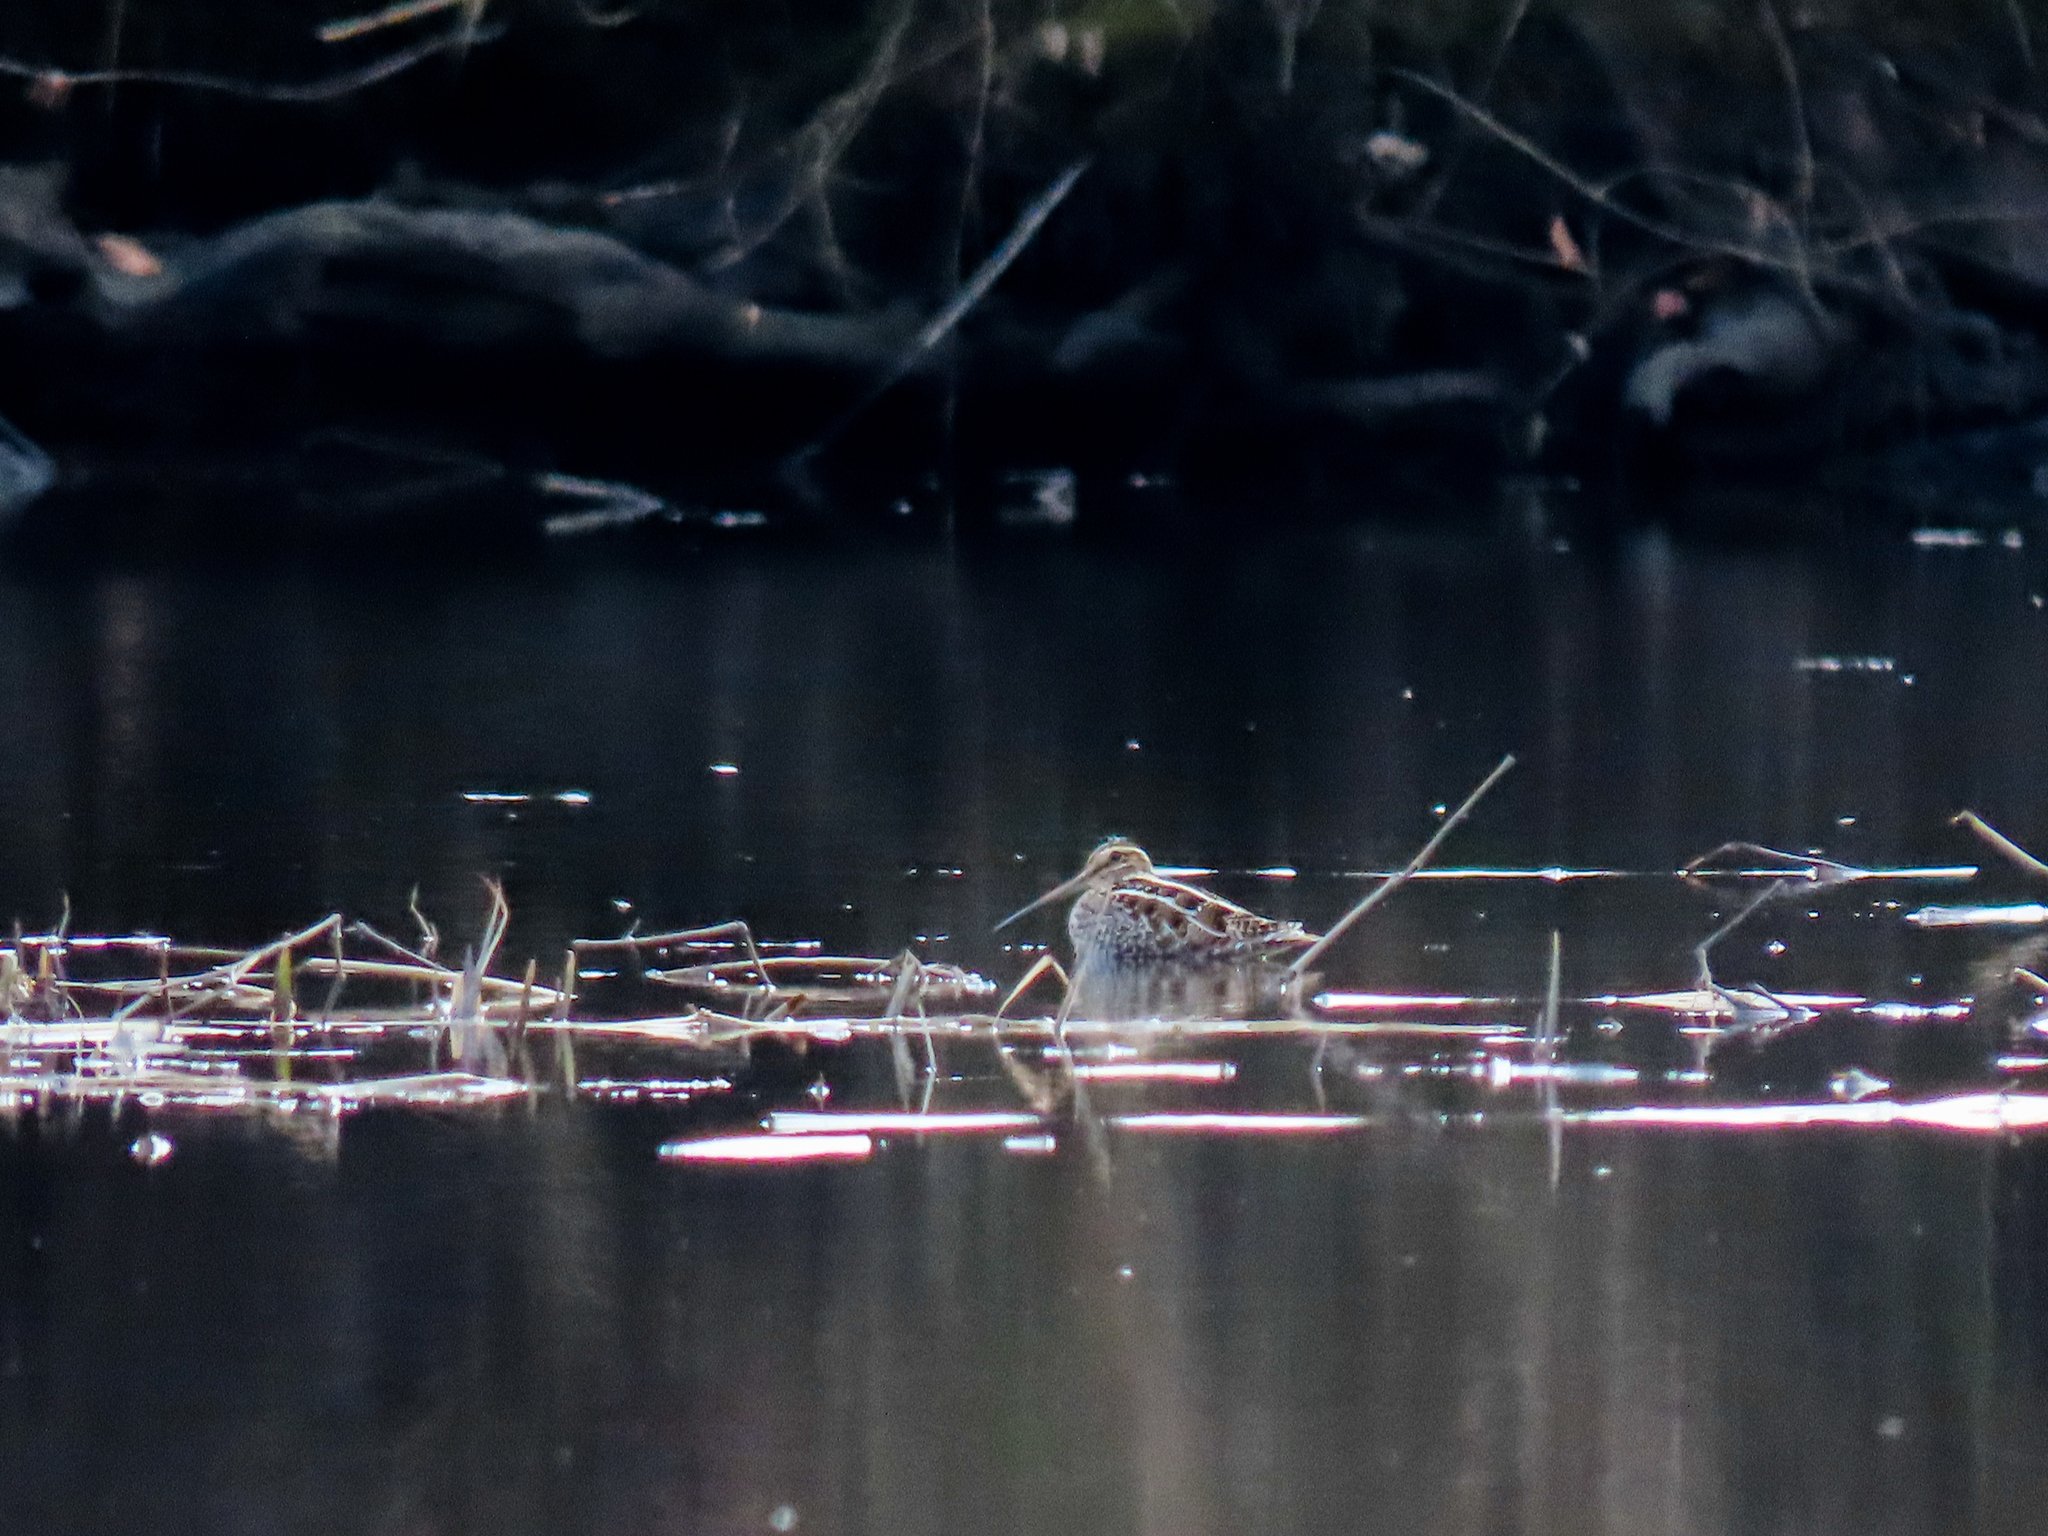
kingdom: Animalia
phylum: Chordata
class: Aves
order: Charadriiformes
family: Scolopacidae
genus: Gallinago
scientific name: Gallinago delicata
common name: Wilson's snipe
